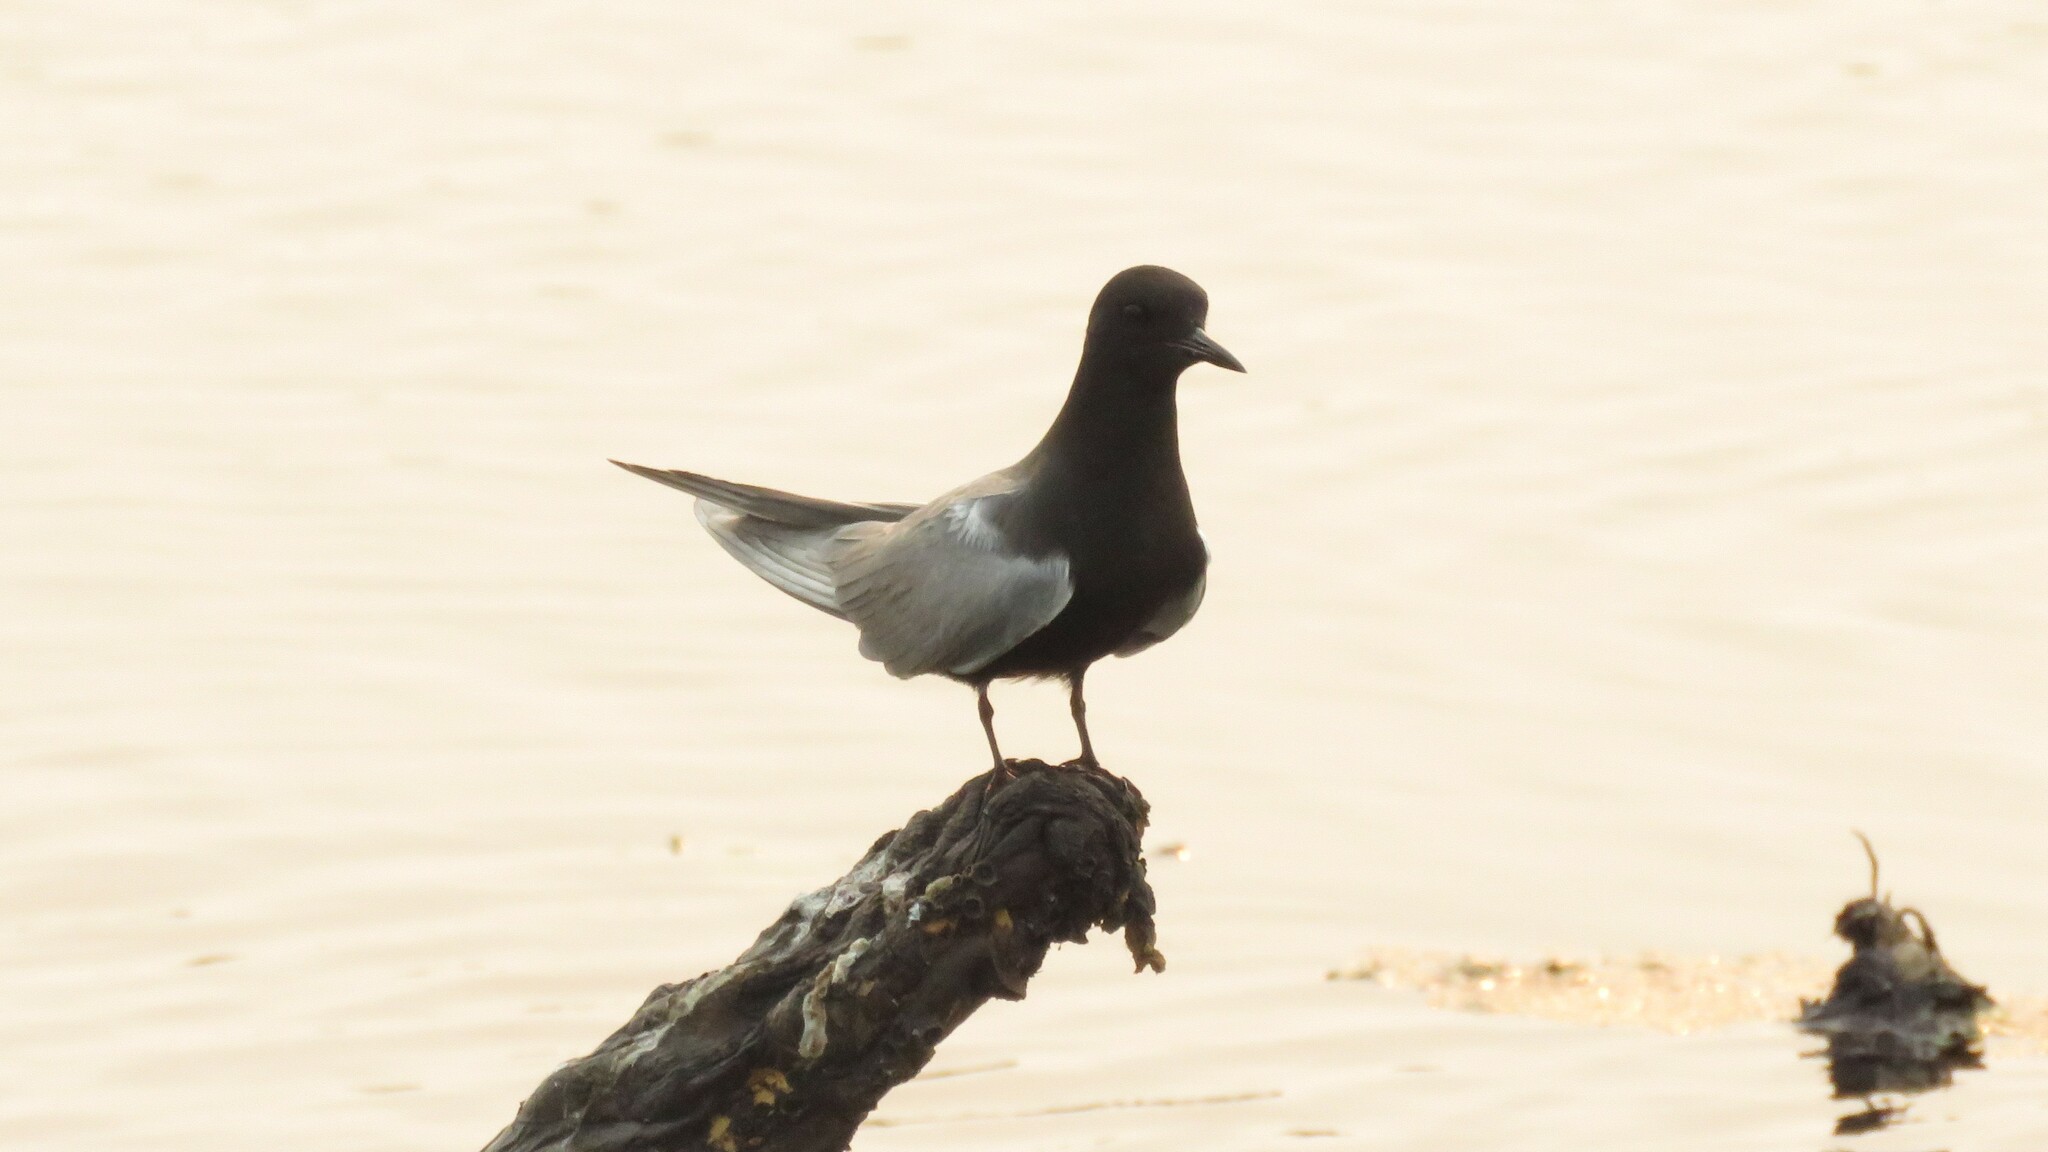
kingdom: Animalia
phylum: Chordata
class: Aves
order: Charadriiformes
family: Laridae
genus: Chlidonias
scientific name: Chlidonias niger
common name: Black tern
